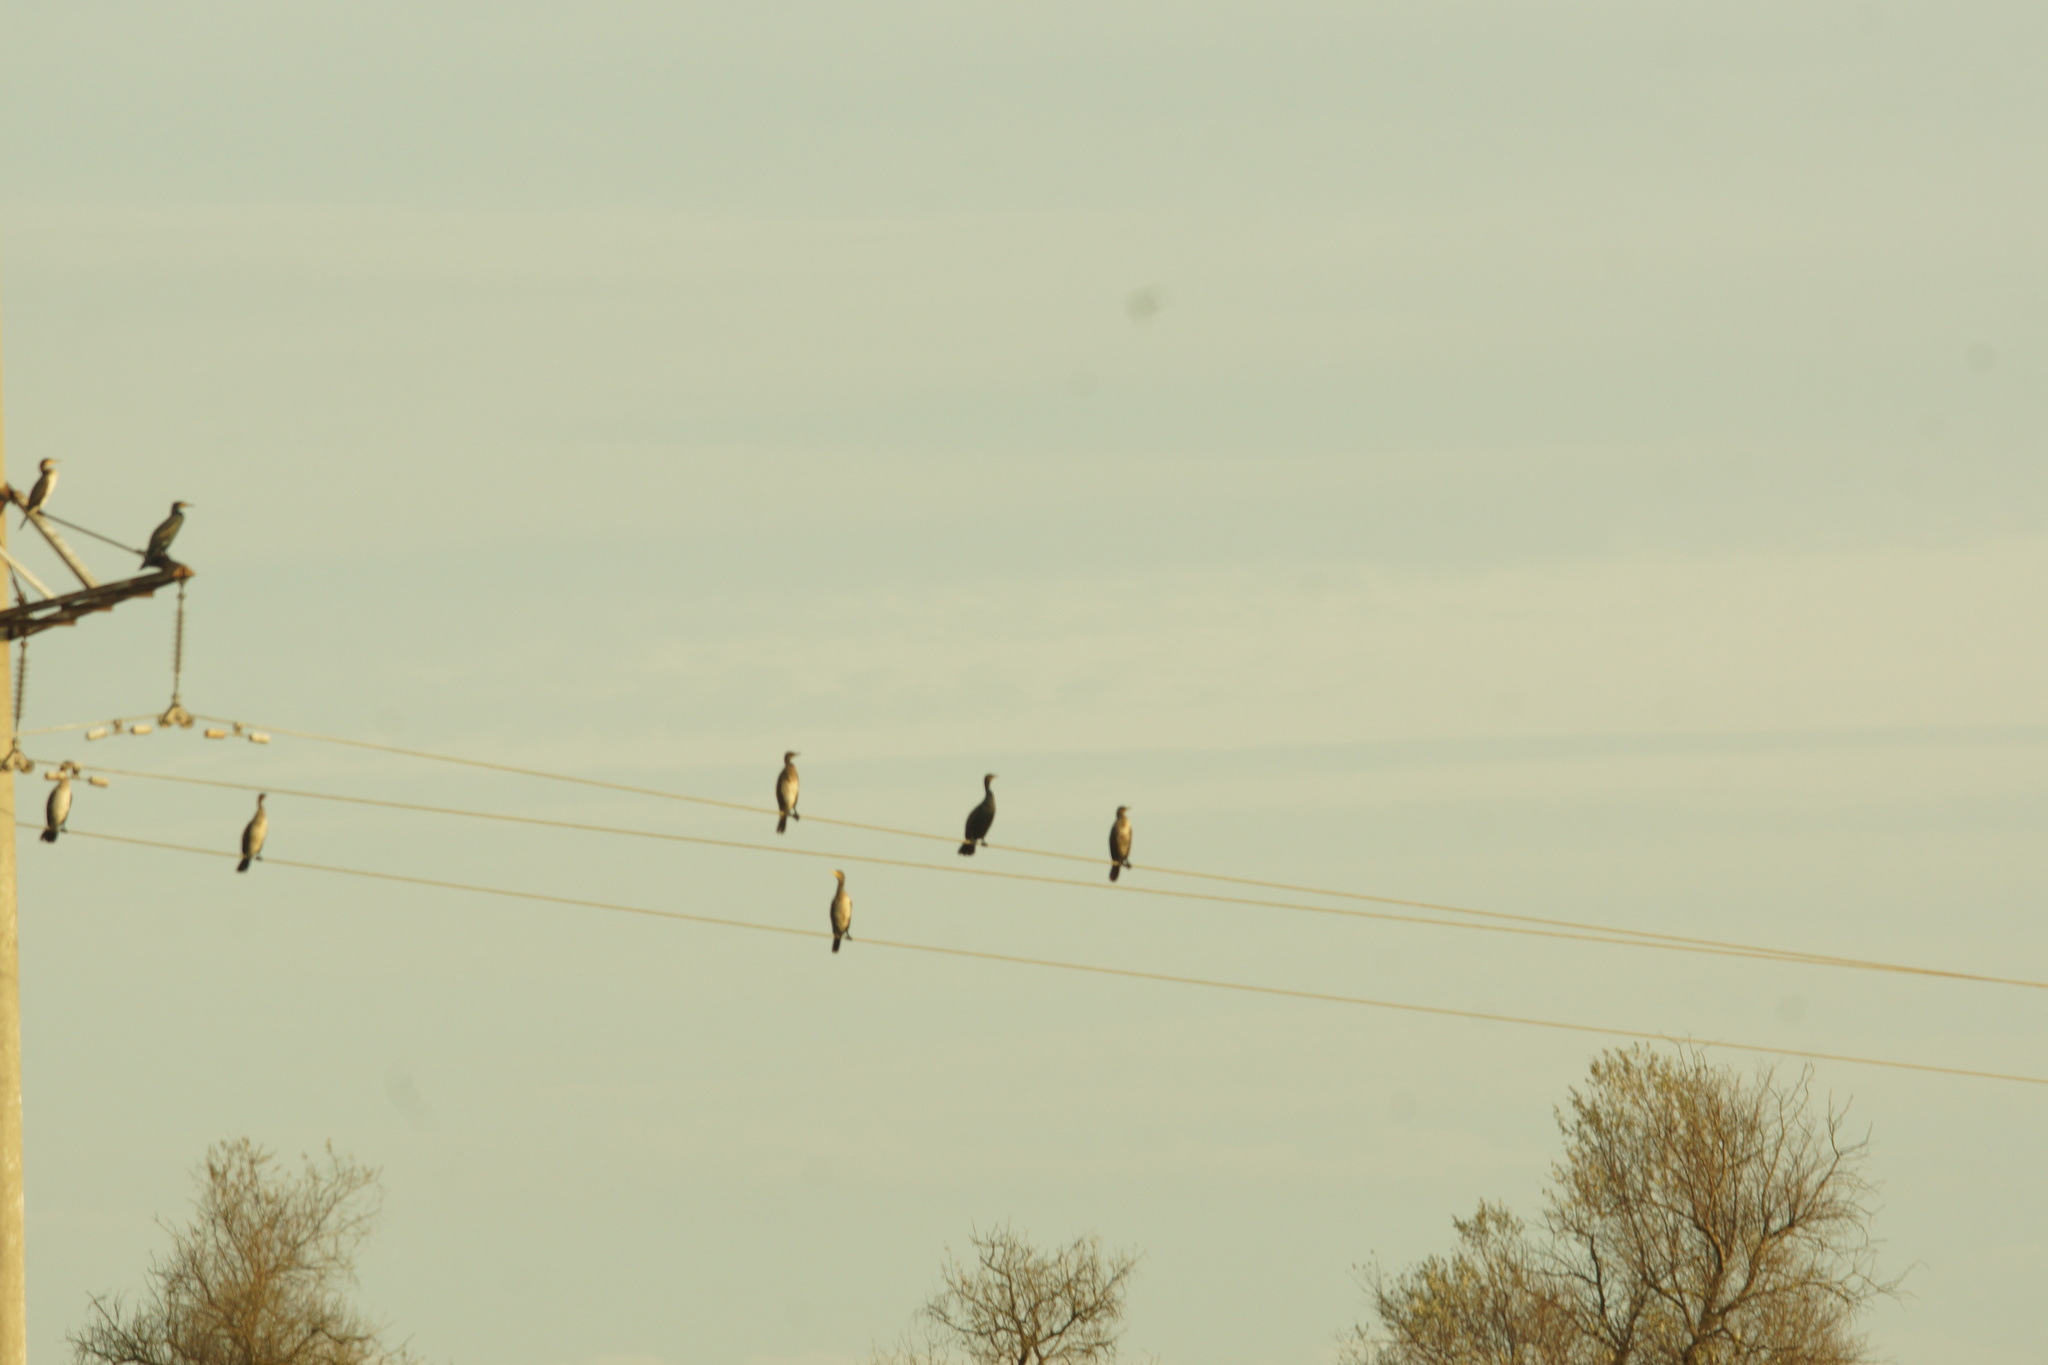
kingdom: Animalia
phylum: Chordata
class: Aves
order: Suliformes
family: Phalacrocoracidae
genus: Phalacrocorax
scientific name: Phalacrocorax carbo
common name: Great cormorant
